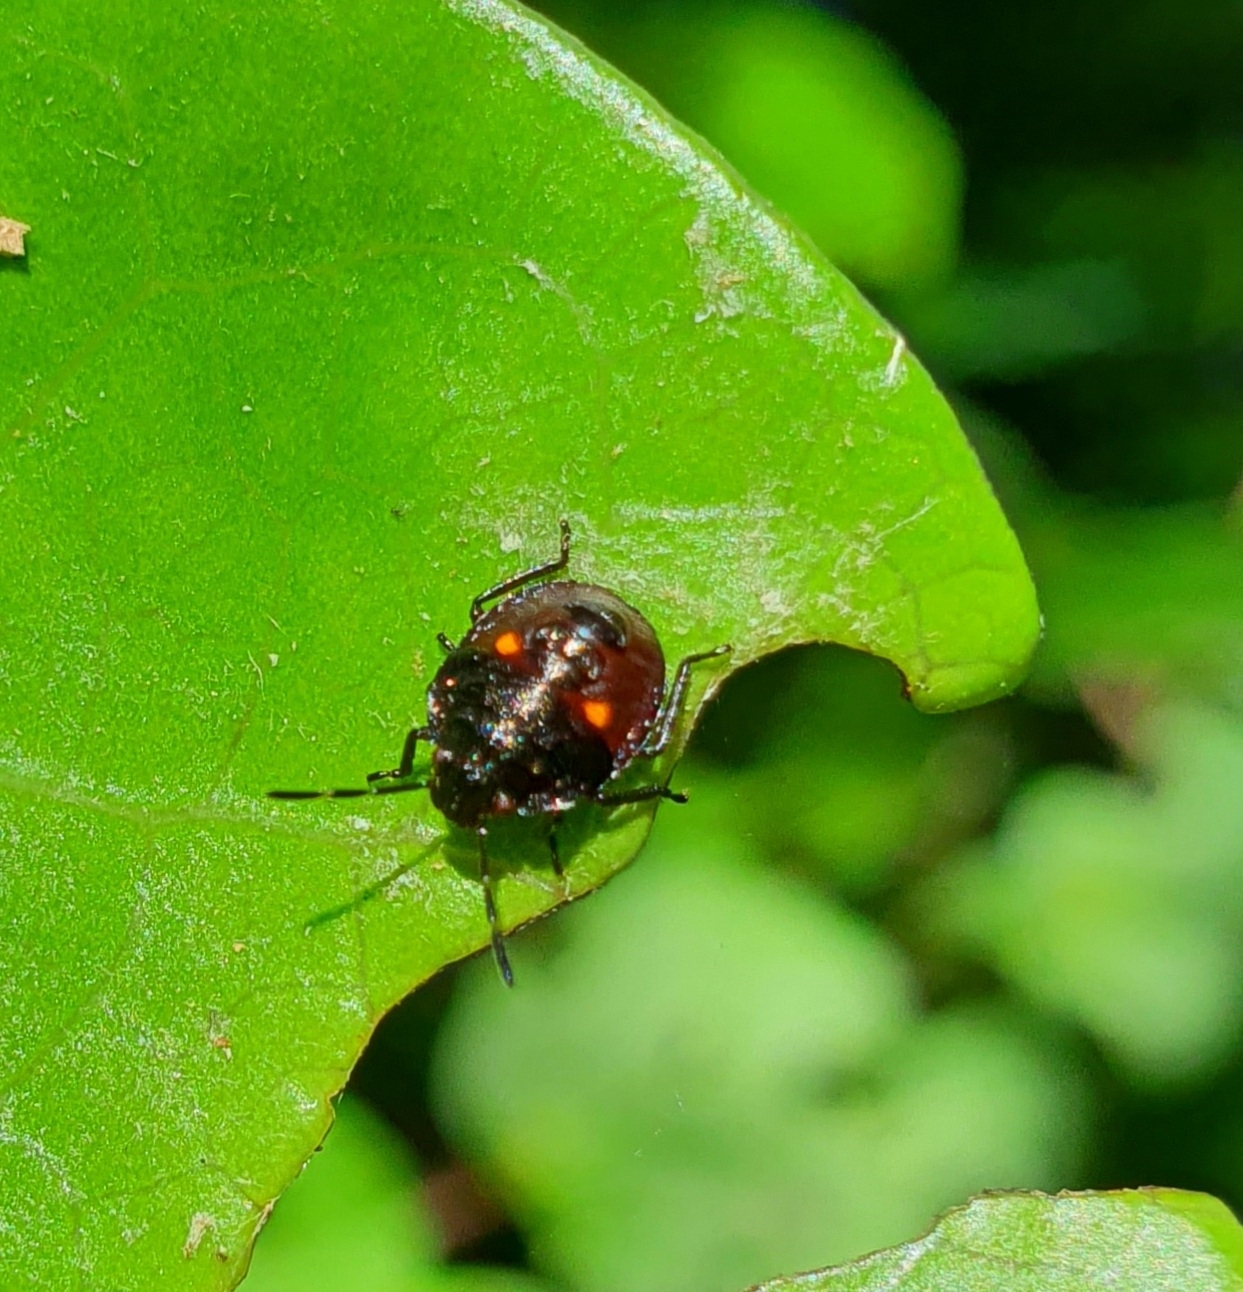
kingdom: Animalia
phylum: Arthropoda
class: Insecta
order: Hemiptera
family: Pentatomidae
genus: Monteithiella
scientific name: Monteithiella
